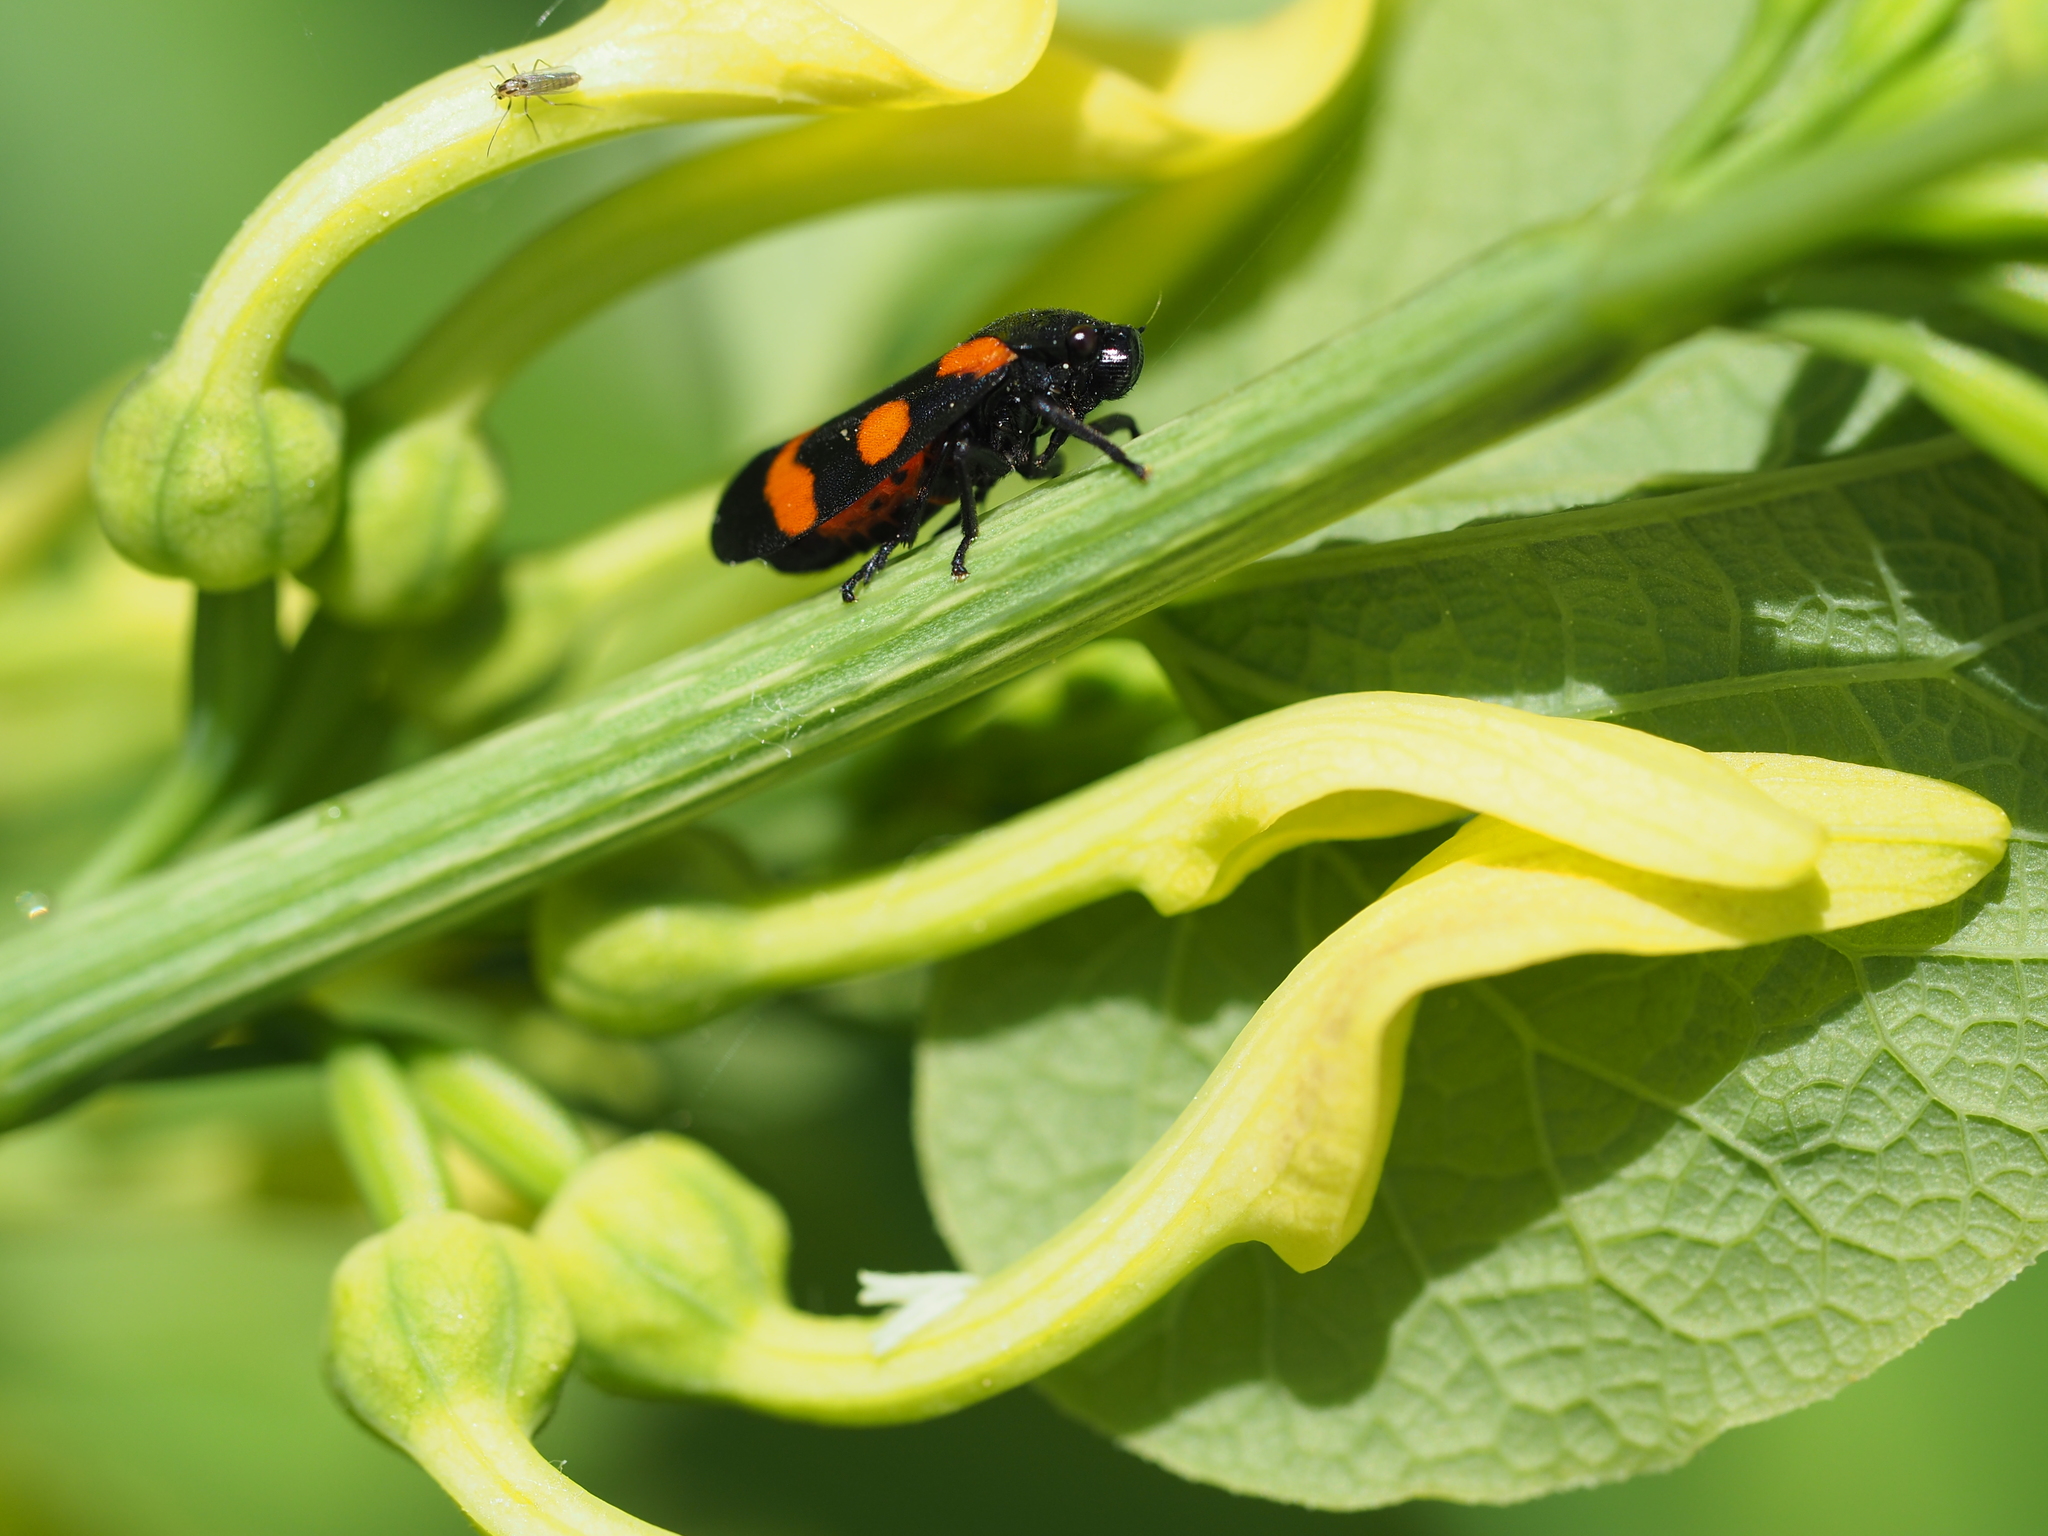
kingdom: Animalia
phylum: Arthropoda
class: Insecta
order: Hemiptera
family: Cercopidae
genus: Cercopis
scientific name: Cercopis sanguinolenta
